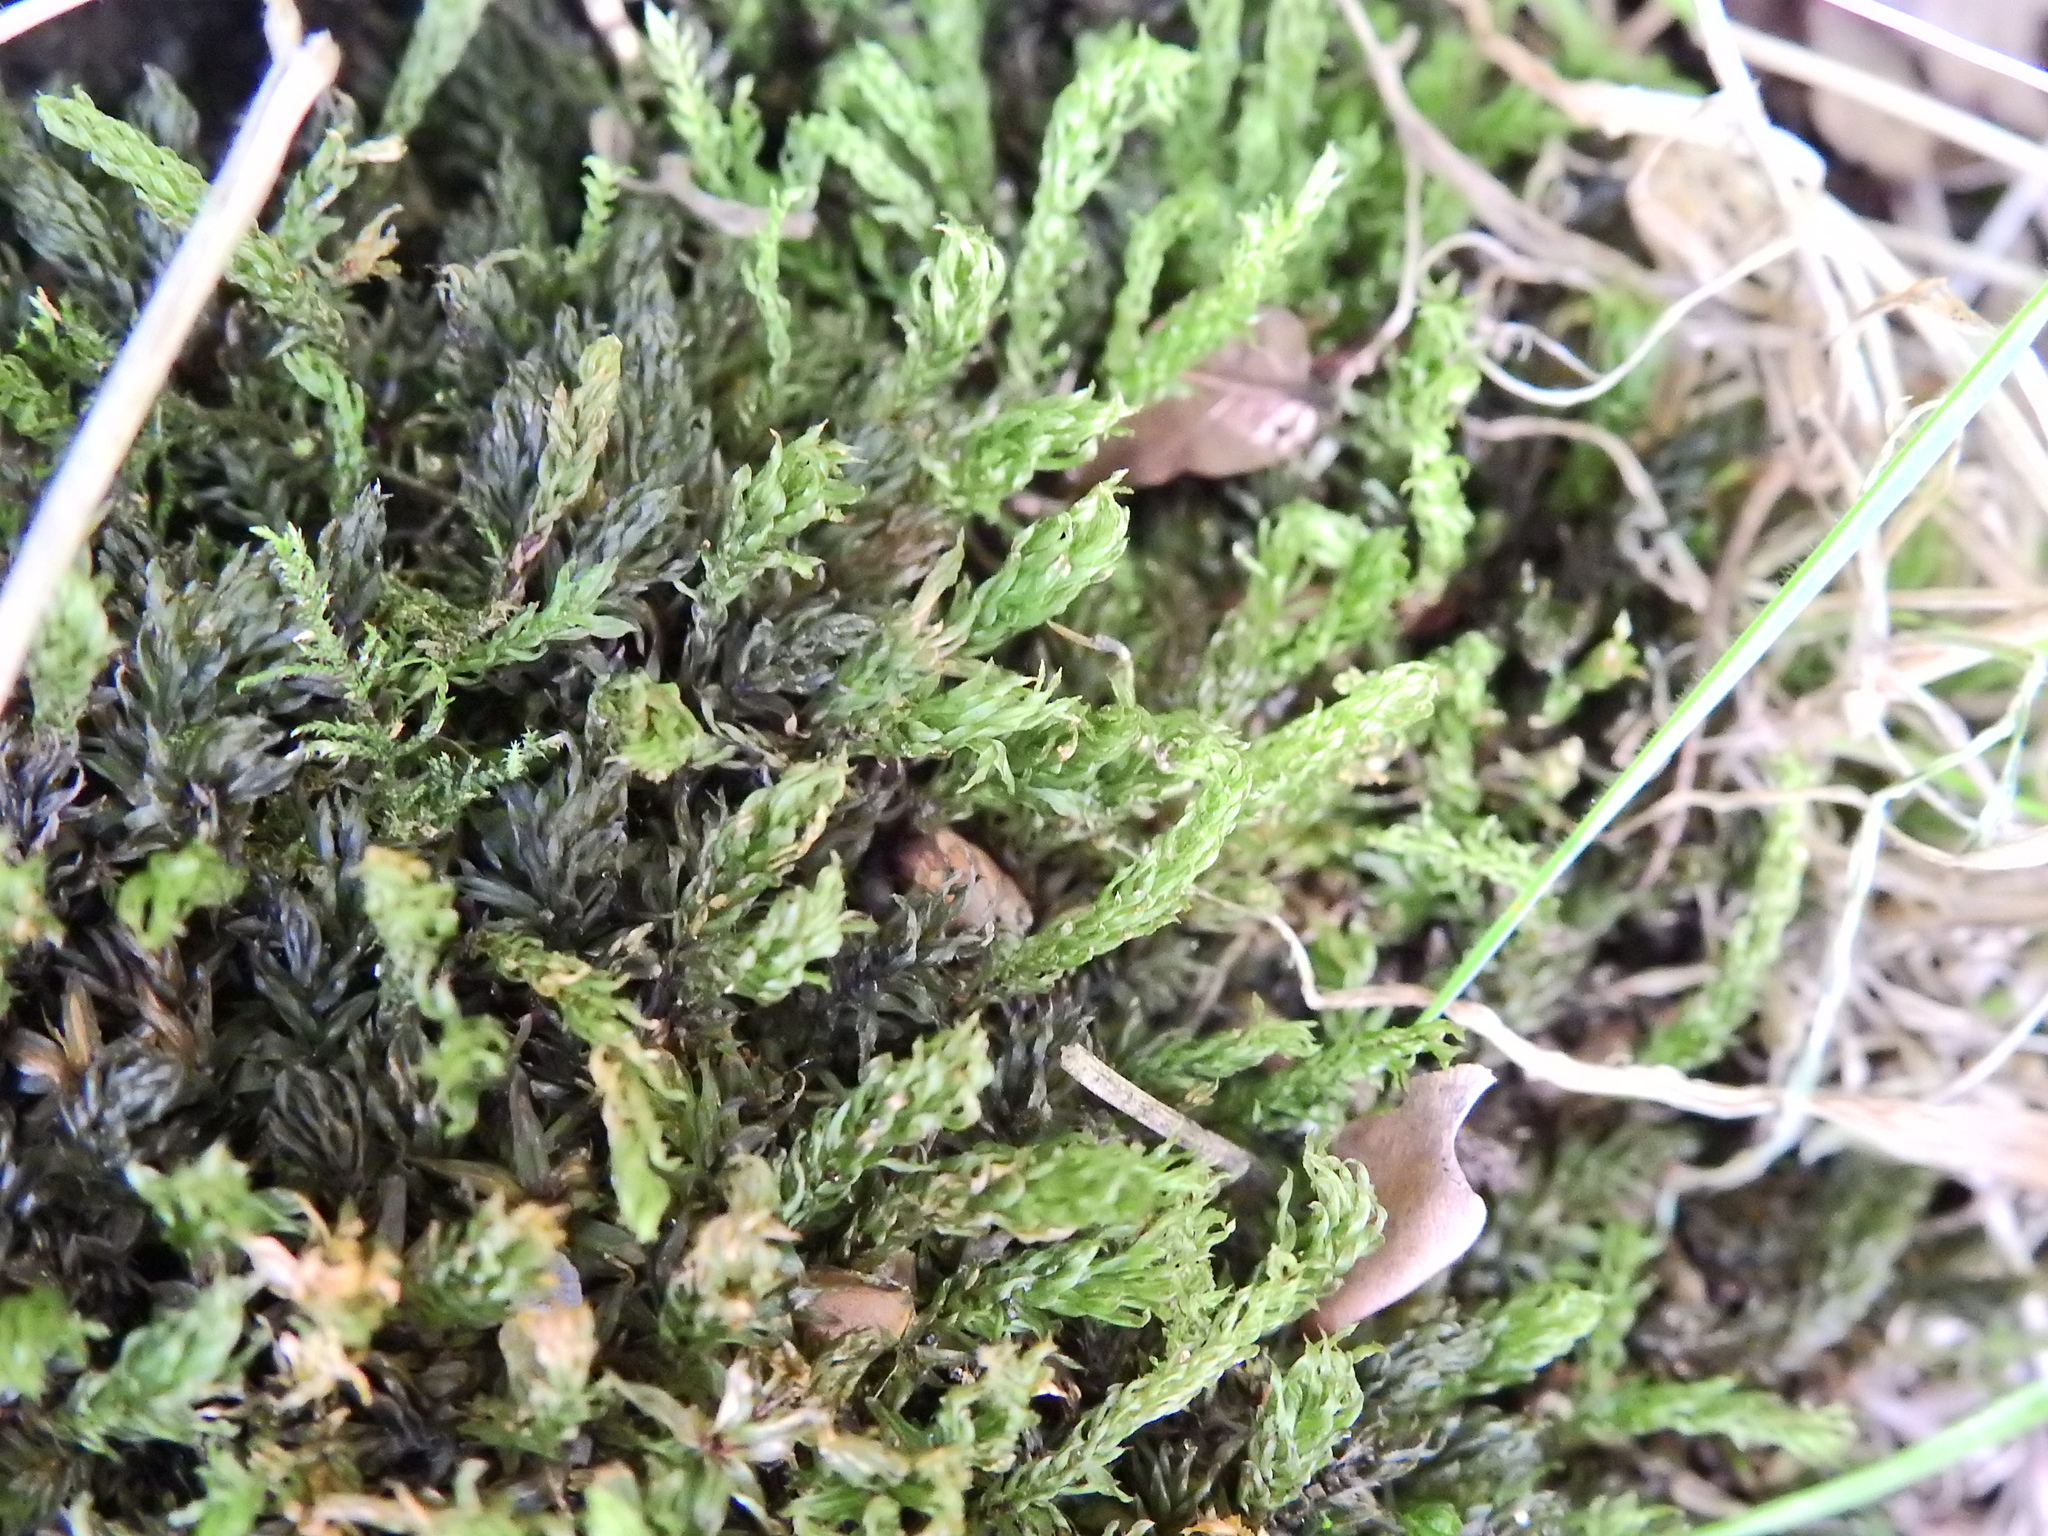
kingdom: Plantae
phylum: Bryophyta
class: Bryopsida
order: Bryales
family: Mniaceae
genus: Mnium
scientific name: Mnium hornum
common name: Swan's-neck leafy moss
